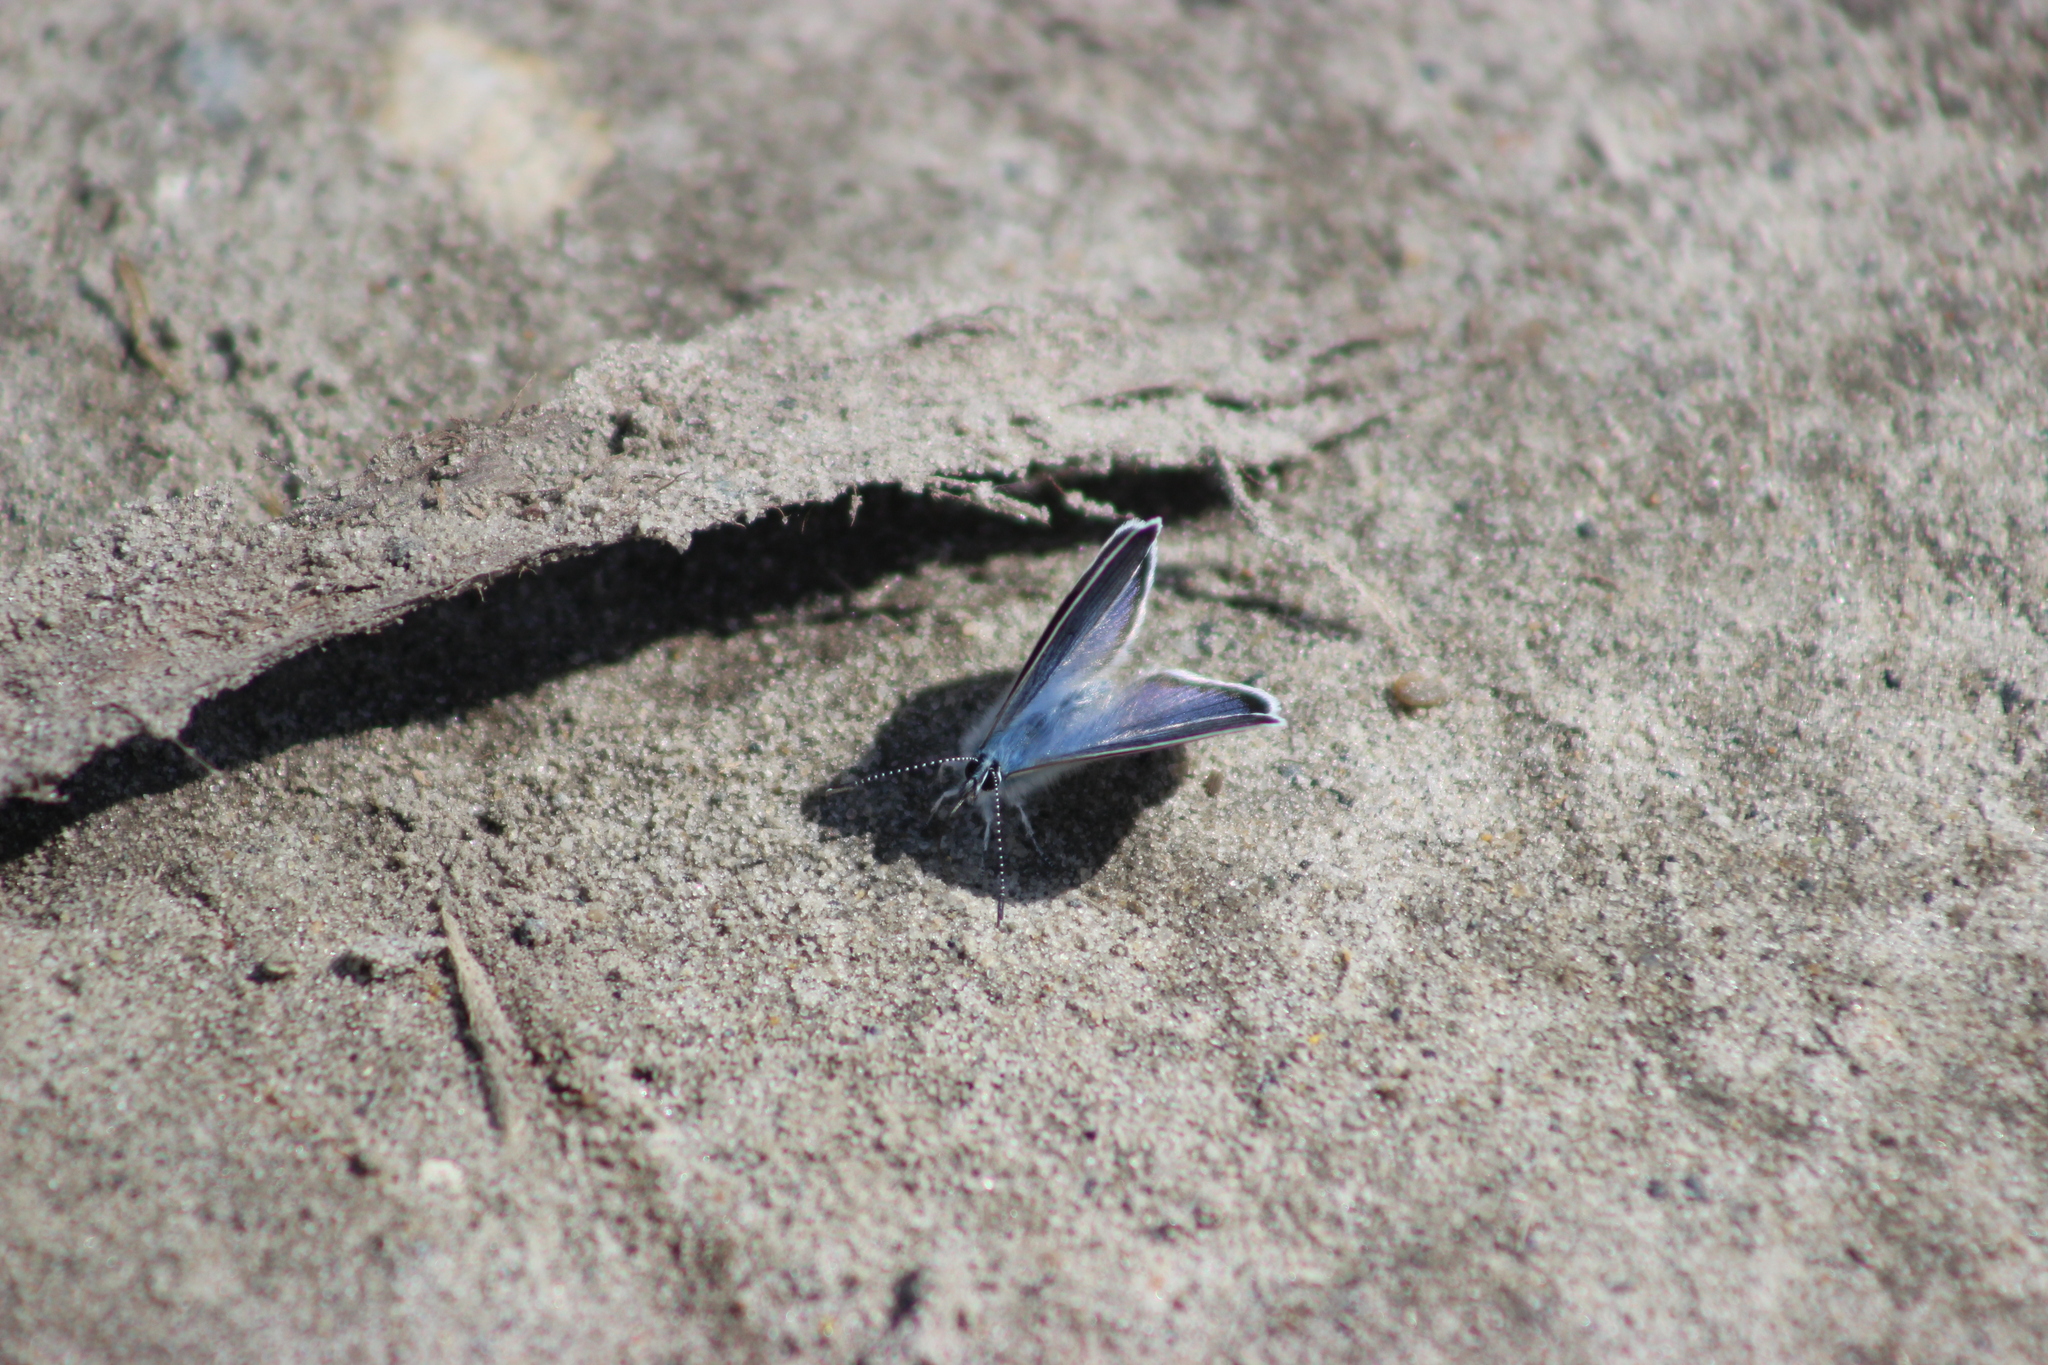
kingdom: Animalia
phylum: Arthropoda
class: Insecta
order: Lepidoptera
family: Lycaenidae
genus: Cyaniris
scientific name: Cyaniris semiargus
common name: Mazarine blue
